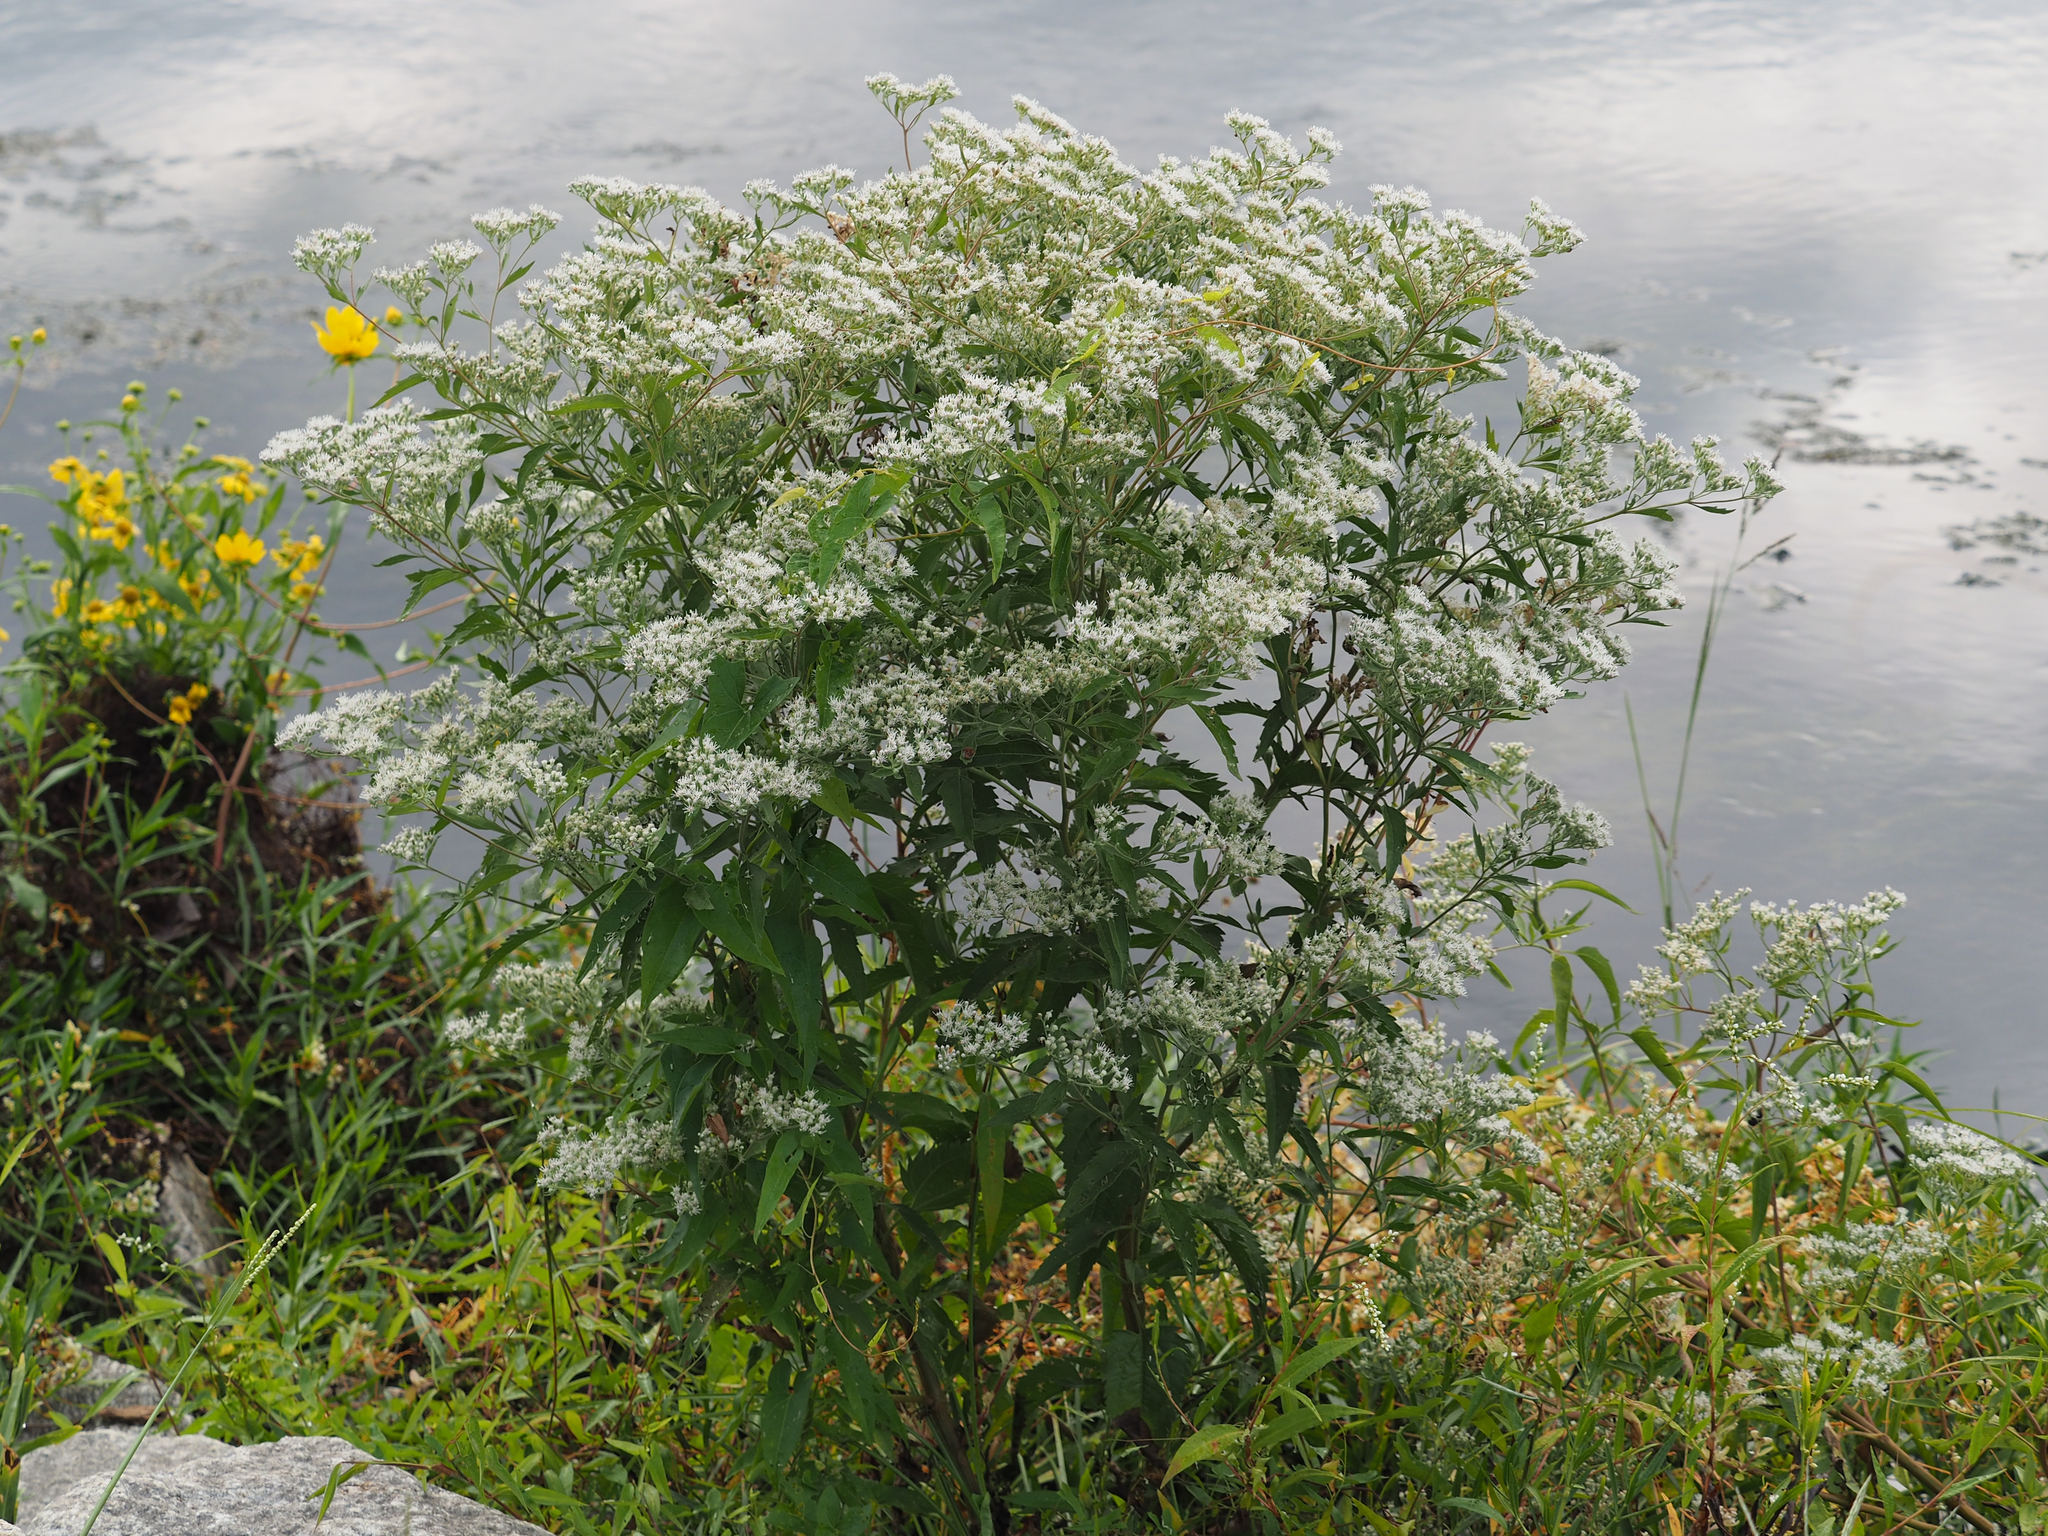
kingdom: Plantae
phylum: Tracheophyta
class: Magnoliopsida
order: Asterales
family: Asteraceae
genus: Eupatorium
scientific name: Eupatorium serotinum
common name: Late boneset
